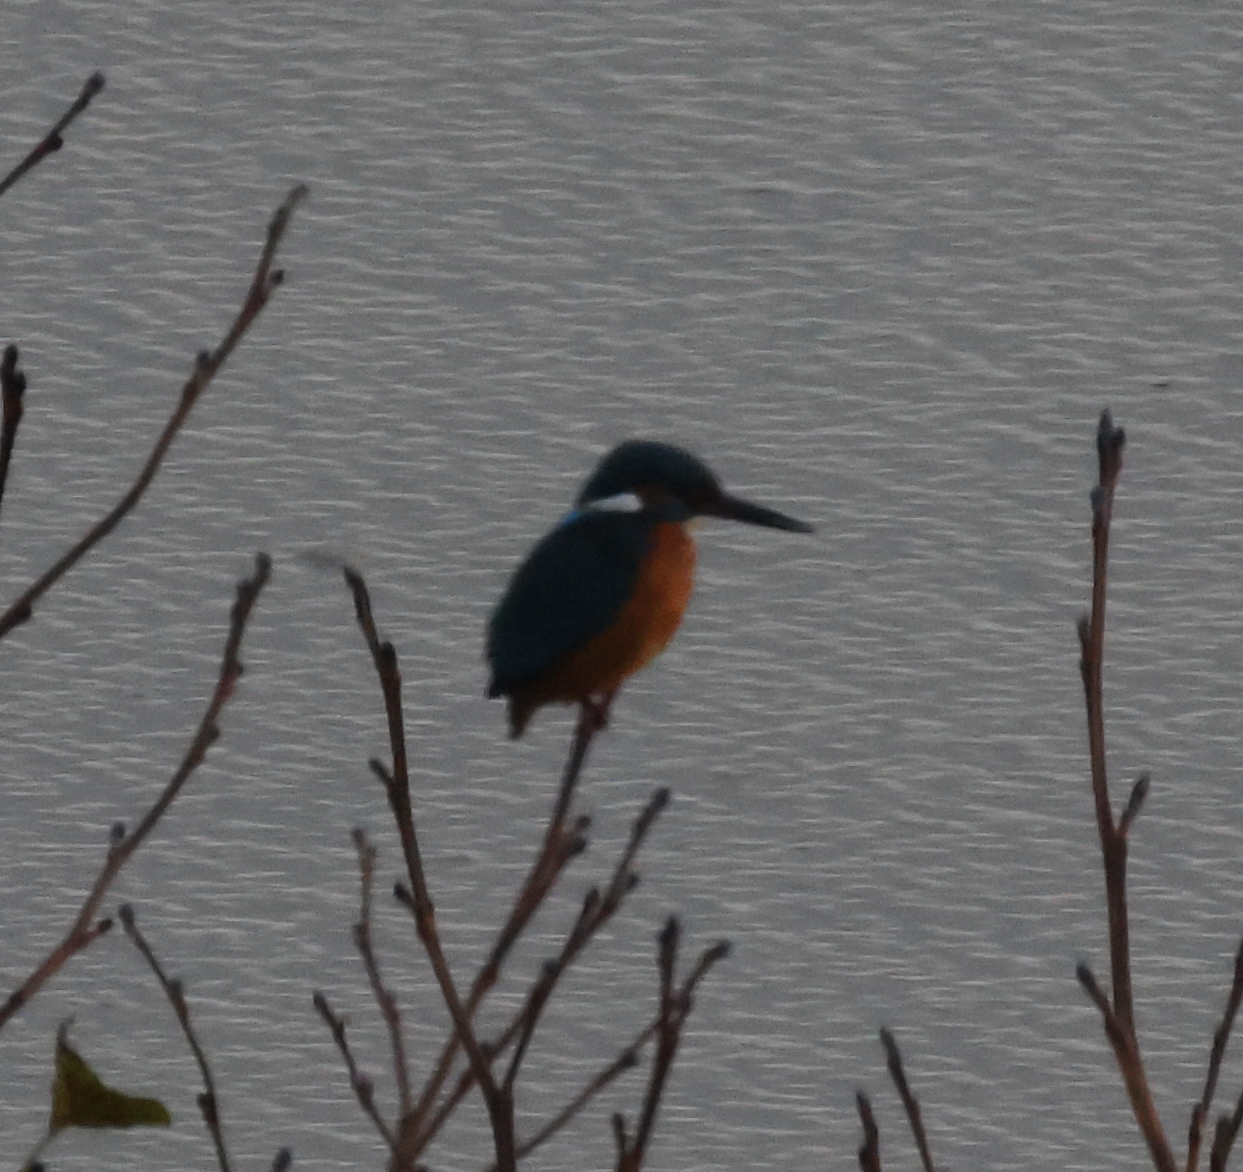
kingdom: Animalia
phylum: Chordata
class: Aves
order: Coraciiformes
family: Alcedinidae
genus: Alcedo
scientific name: Alcedo atthis
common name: Common kingfisher
